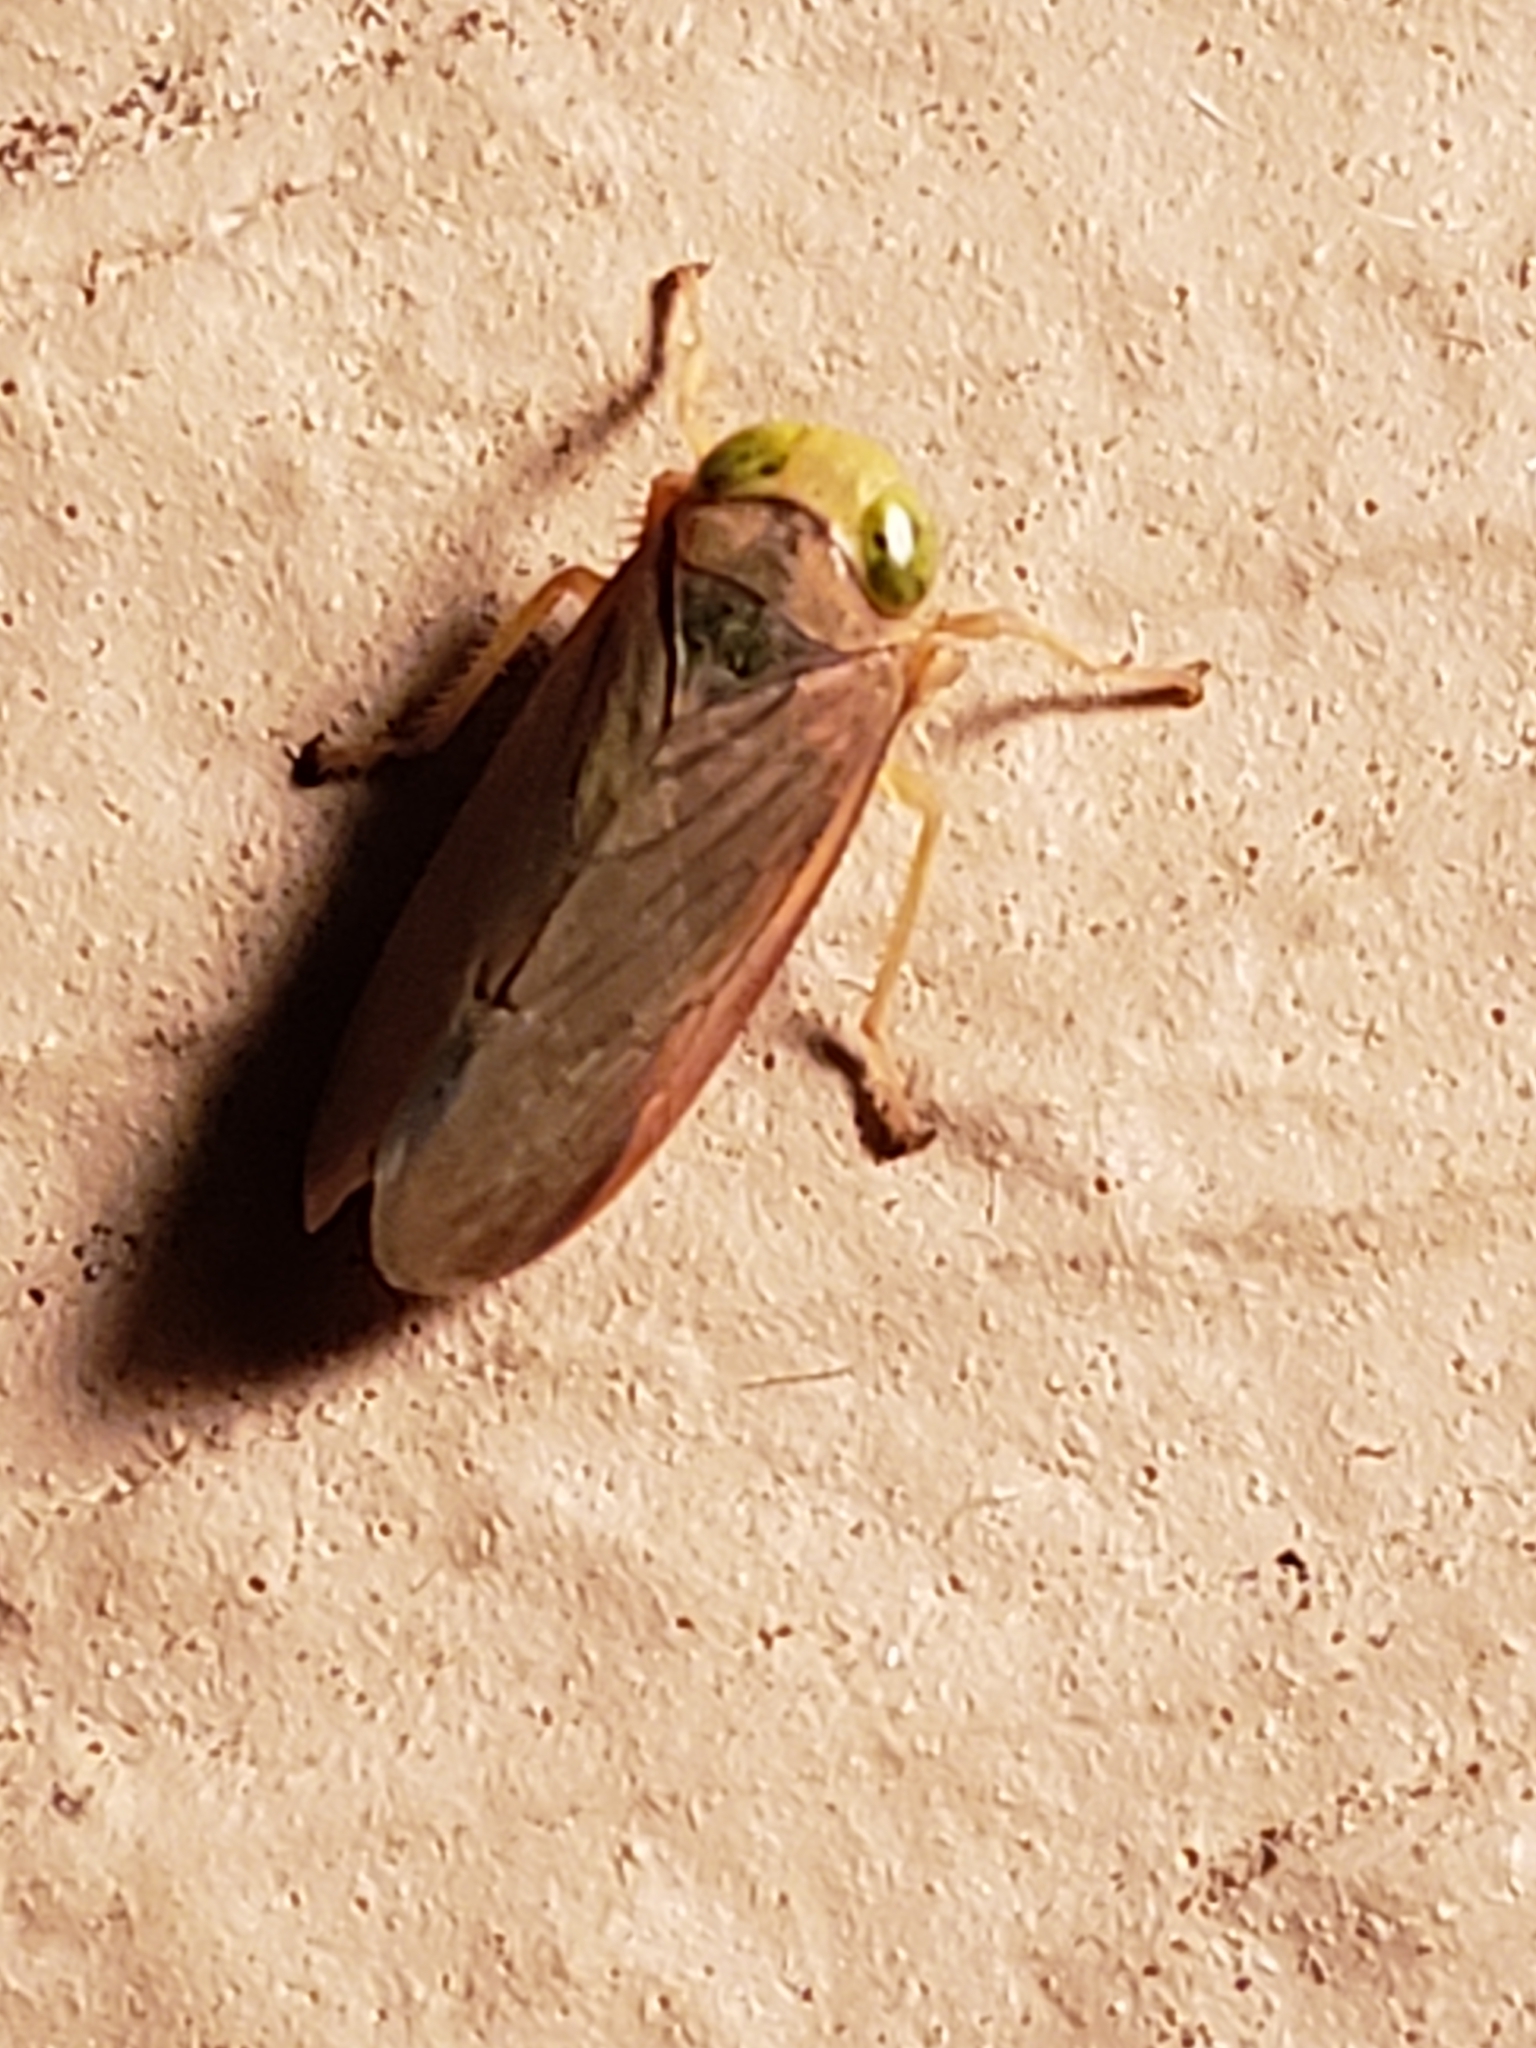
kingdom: Animalia
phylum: Arthropoda
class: Insecta
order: Hemiptera
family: Cicadellidae
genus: Jikradia
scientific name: Jikradia olitoria
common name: Coppery leafhopper
